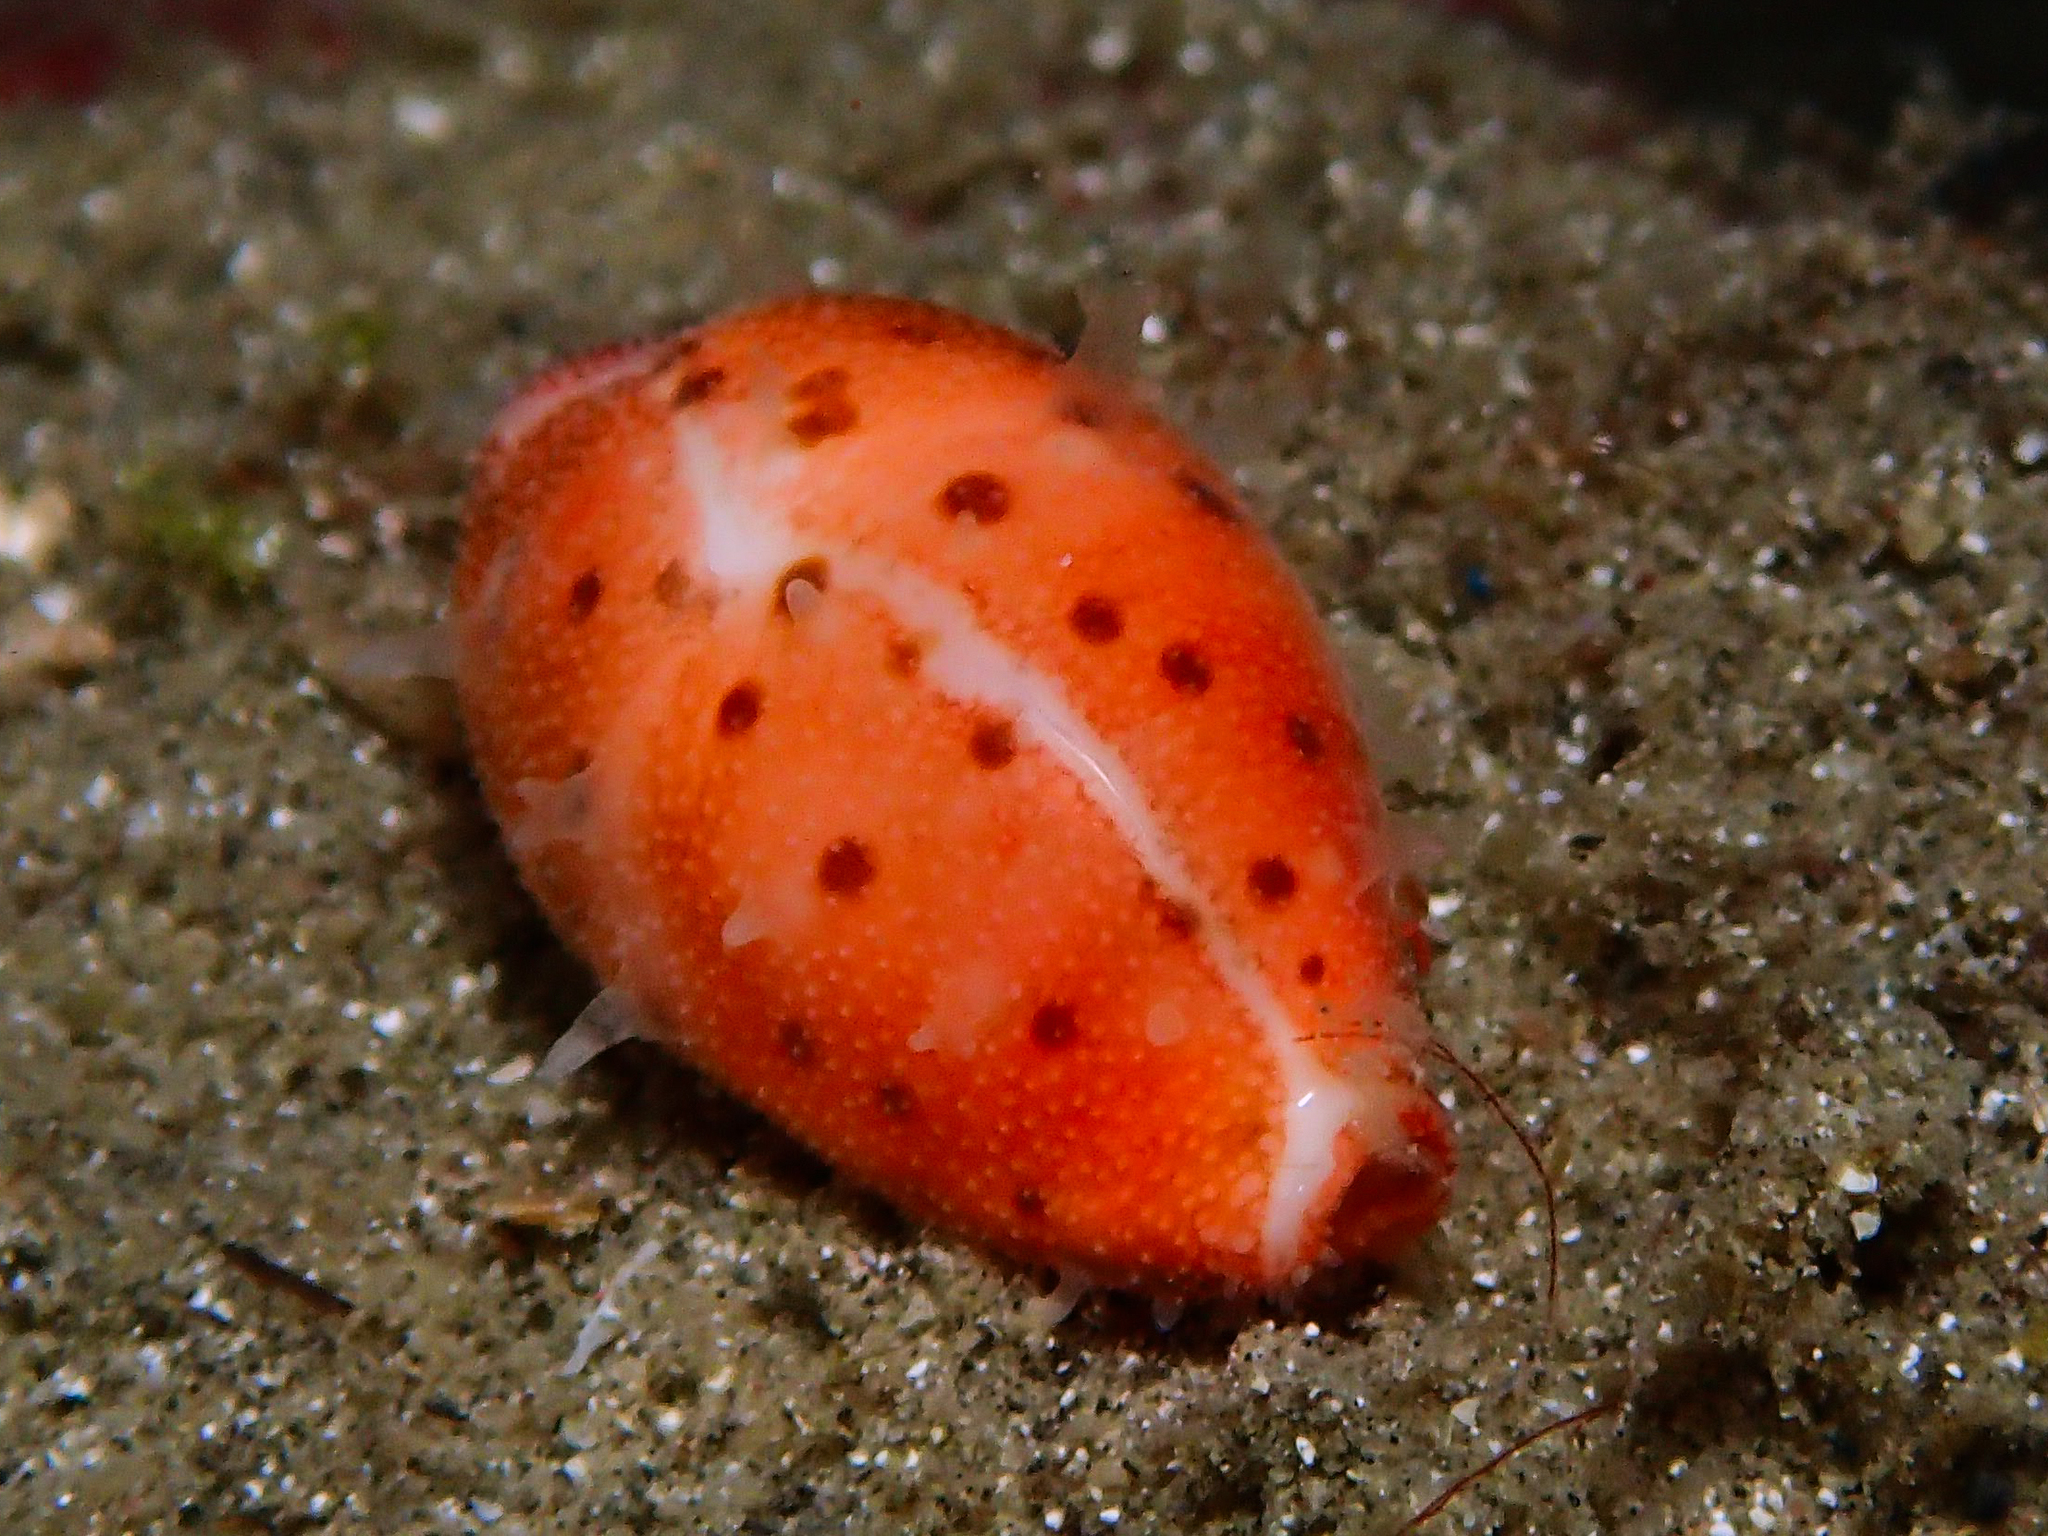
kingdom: Animalia
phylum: Mollusca
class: Gastropoda
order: Littorinimorpha
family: Cypraeidae
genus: Ransoniella
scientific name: Ransoniella punctata
